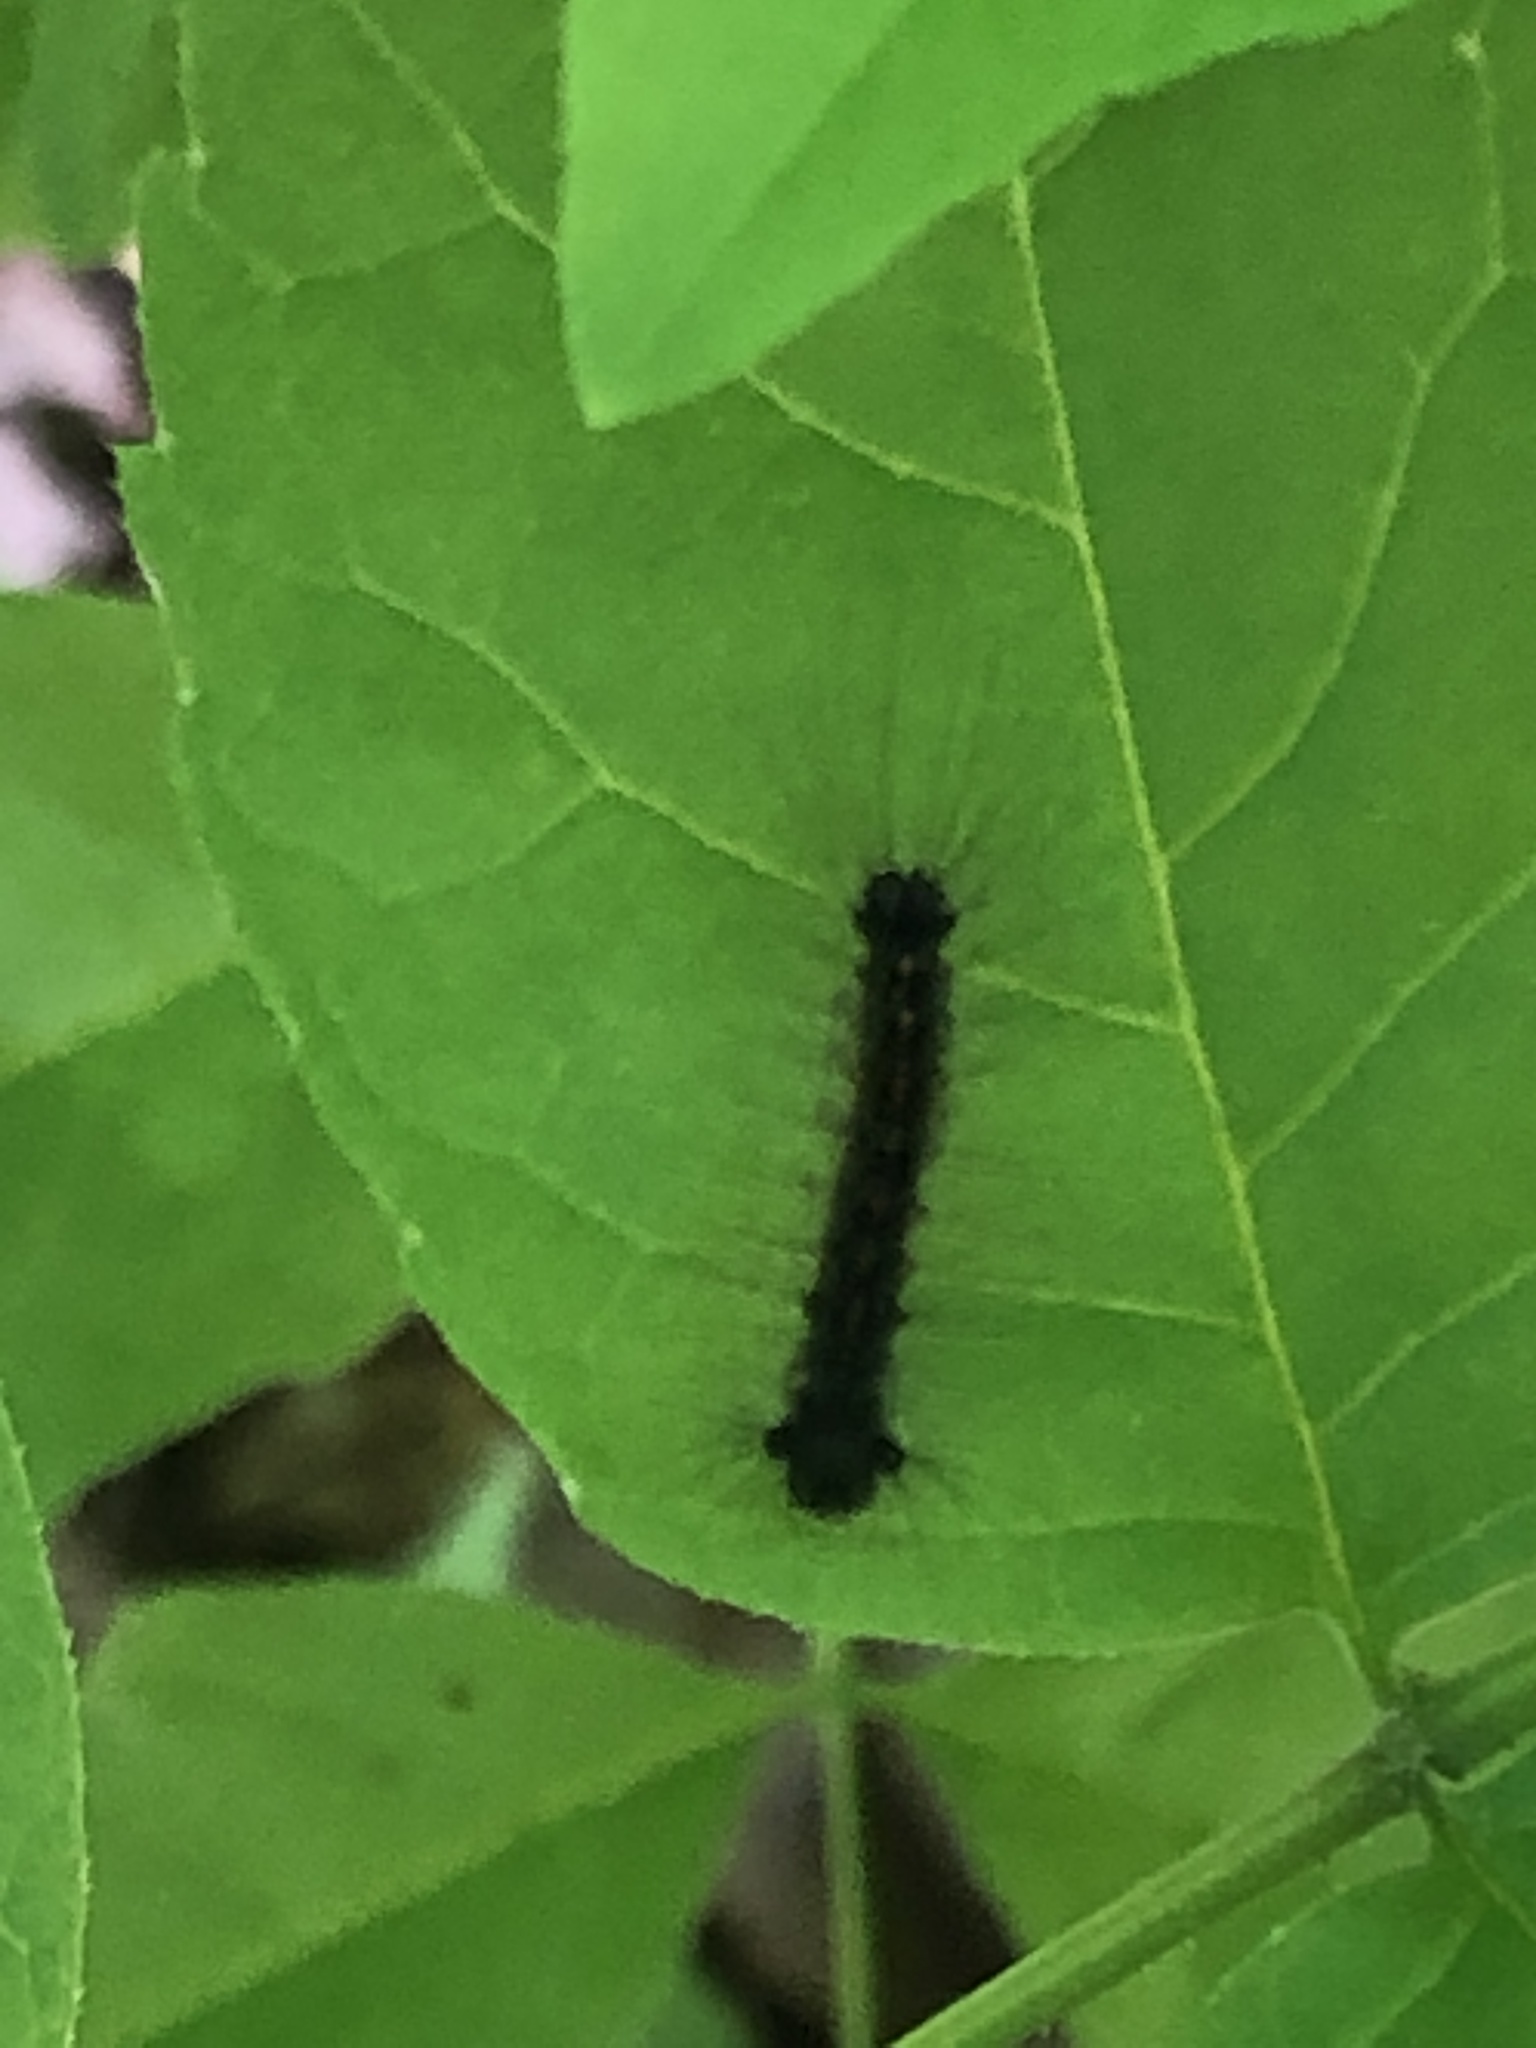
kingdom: Animalia
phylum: Arthropoda
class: Insecta
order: Lepidoptera
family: Erebidae
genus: Lymantria
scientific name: Lymantria dispar
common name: Gypsy moth
